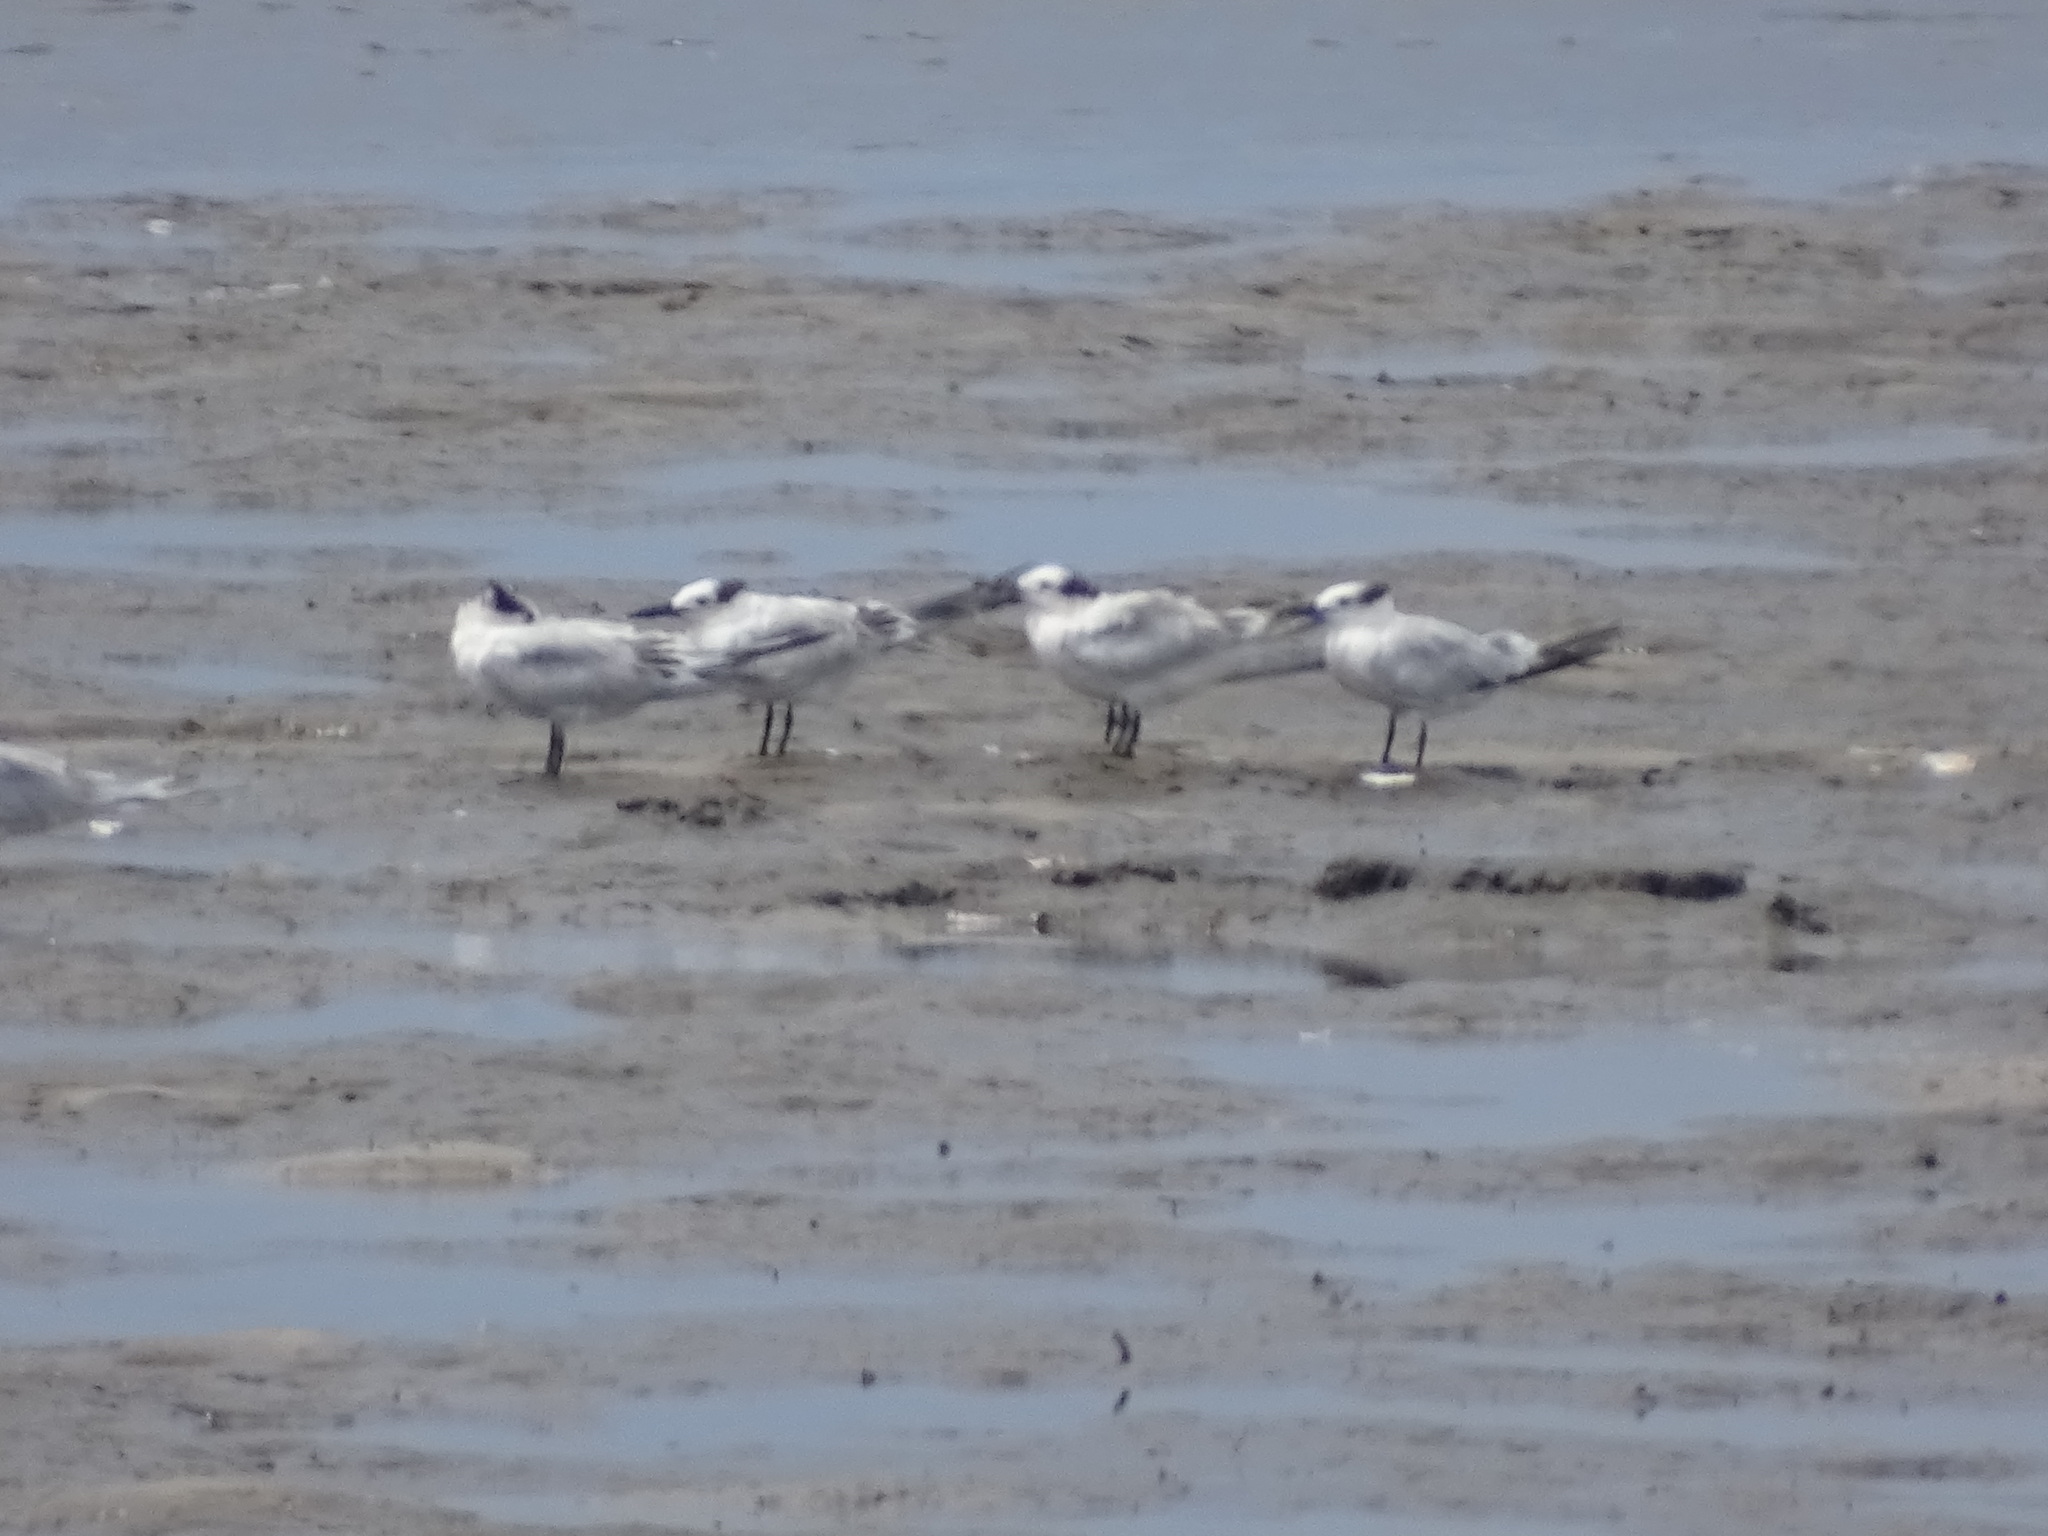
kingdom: Animalia
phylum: Chordata
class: Aves
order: Charadriiformes
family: Laridae
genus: Thalasseus
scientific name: Thalasseus sandvicensis
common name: Sandwich tern
